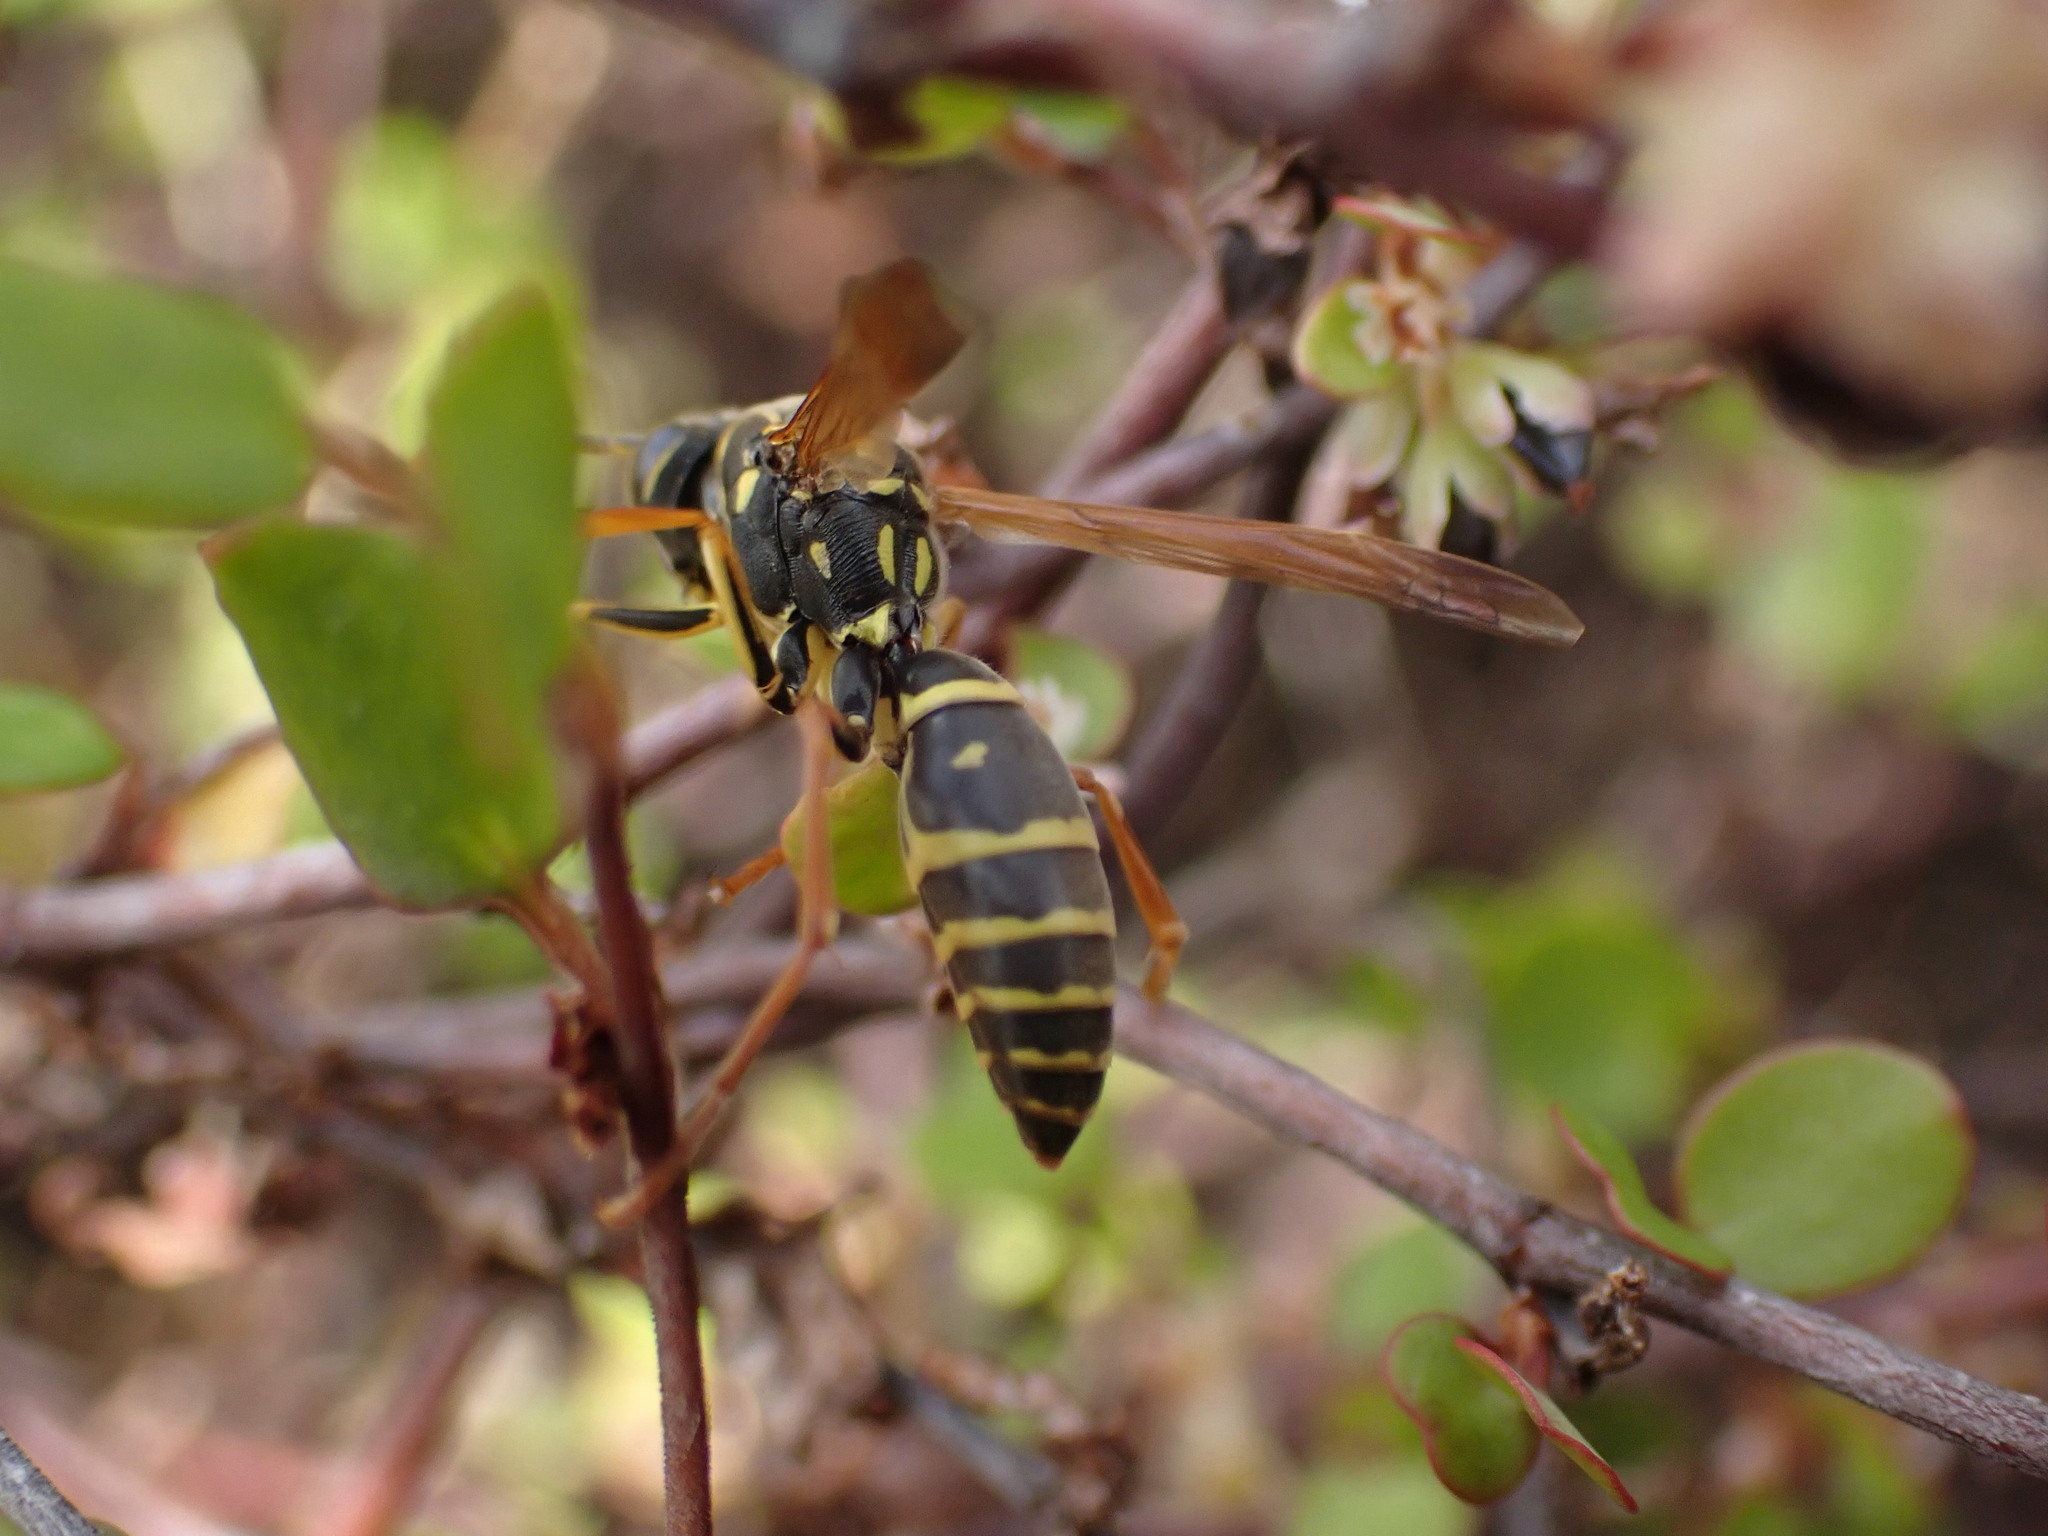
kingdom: Animalia
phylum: Arthropoda
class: Insecta
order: Hymenoptera
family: Eumenidae
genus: Polistes
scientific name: Polistes chinensis
